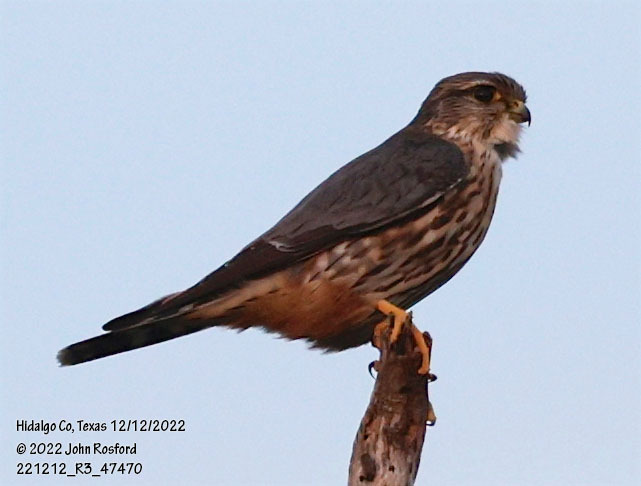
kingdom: Animalia
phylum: Chordata
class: Aves
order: Falconiformes
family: Falconidae
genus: Falco
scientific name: Falco columbarius
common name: Merlin
